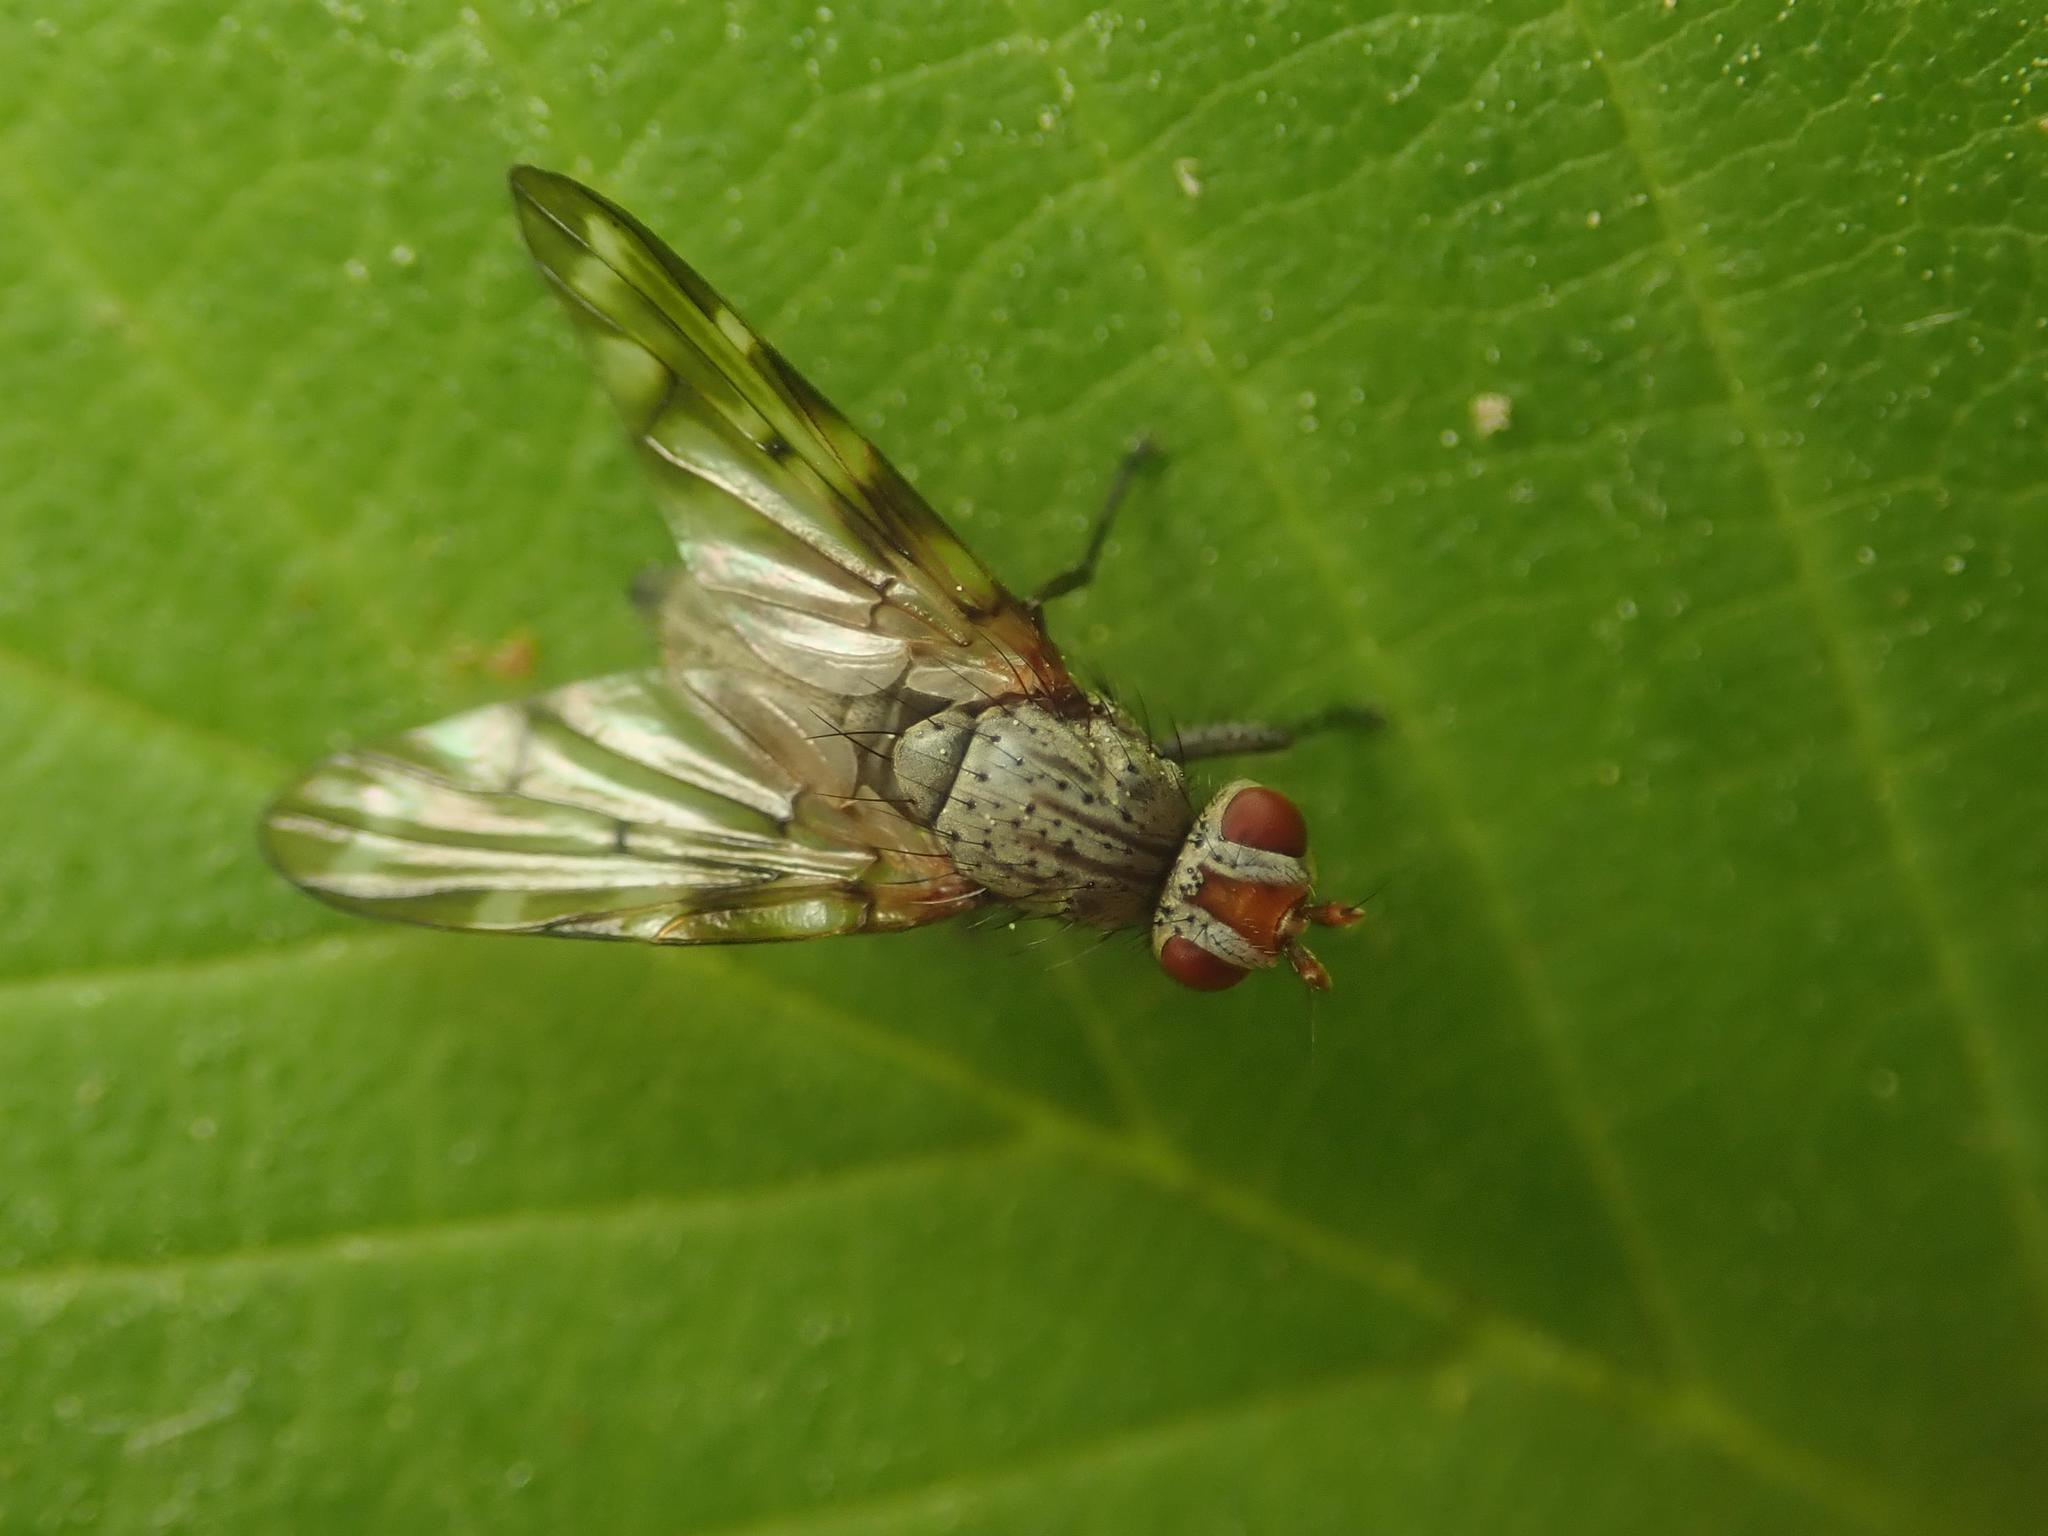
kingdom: Animalia
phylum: Arthropoda
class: Insecta
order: Diptera
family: Ulidiidae
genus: Otites
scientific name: Otites guttata
